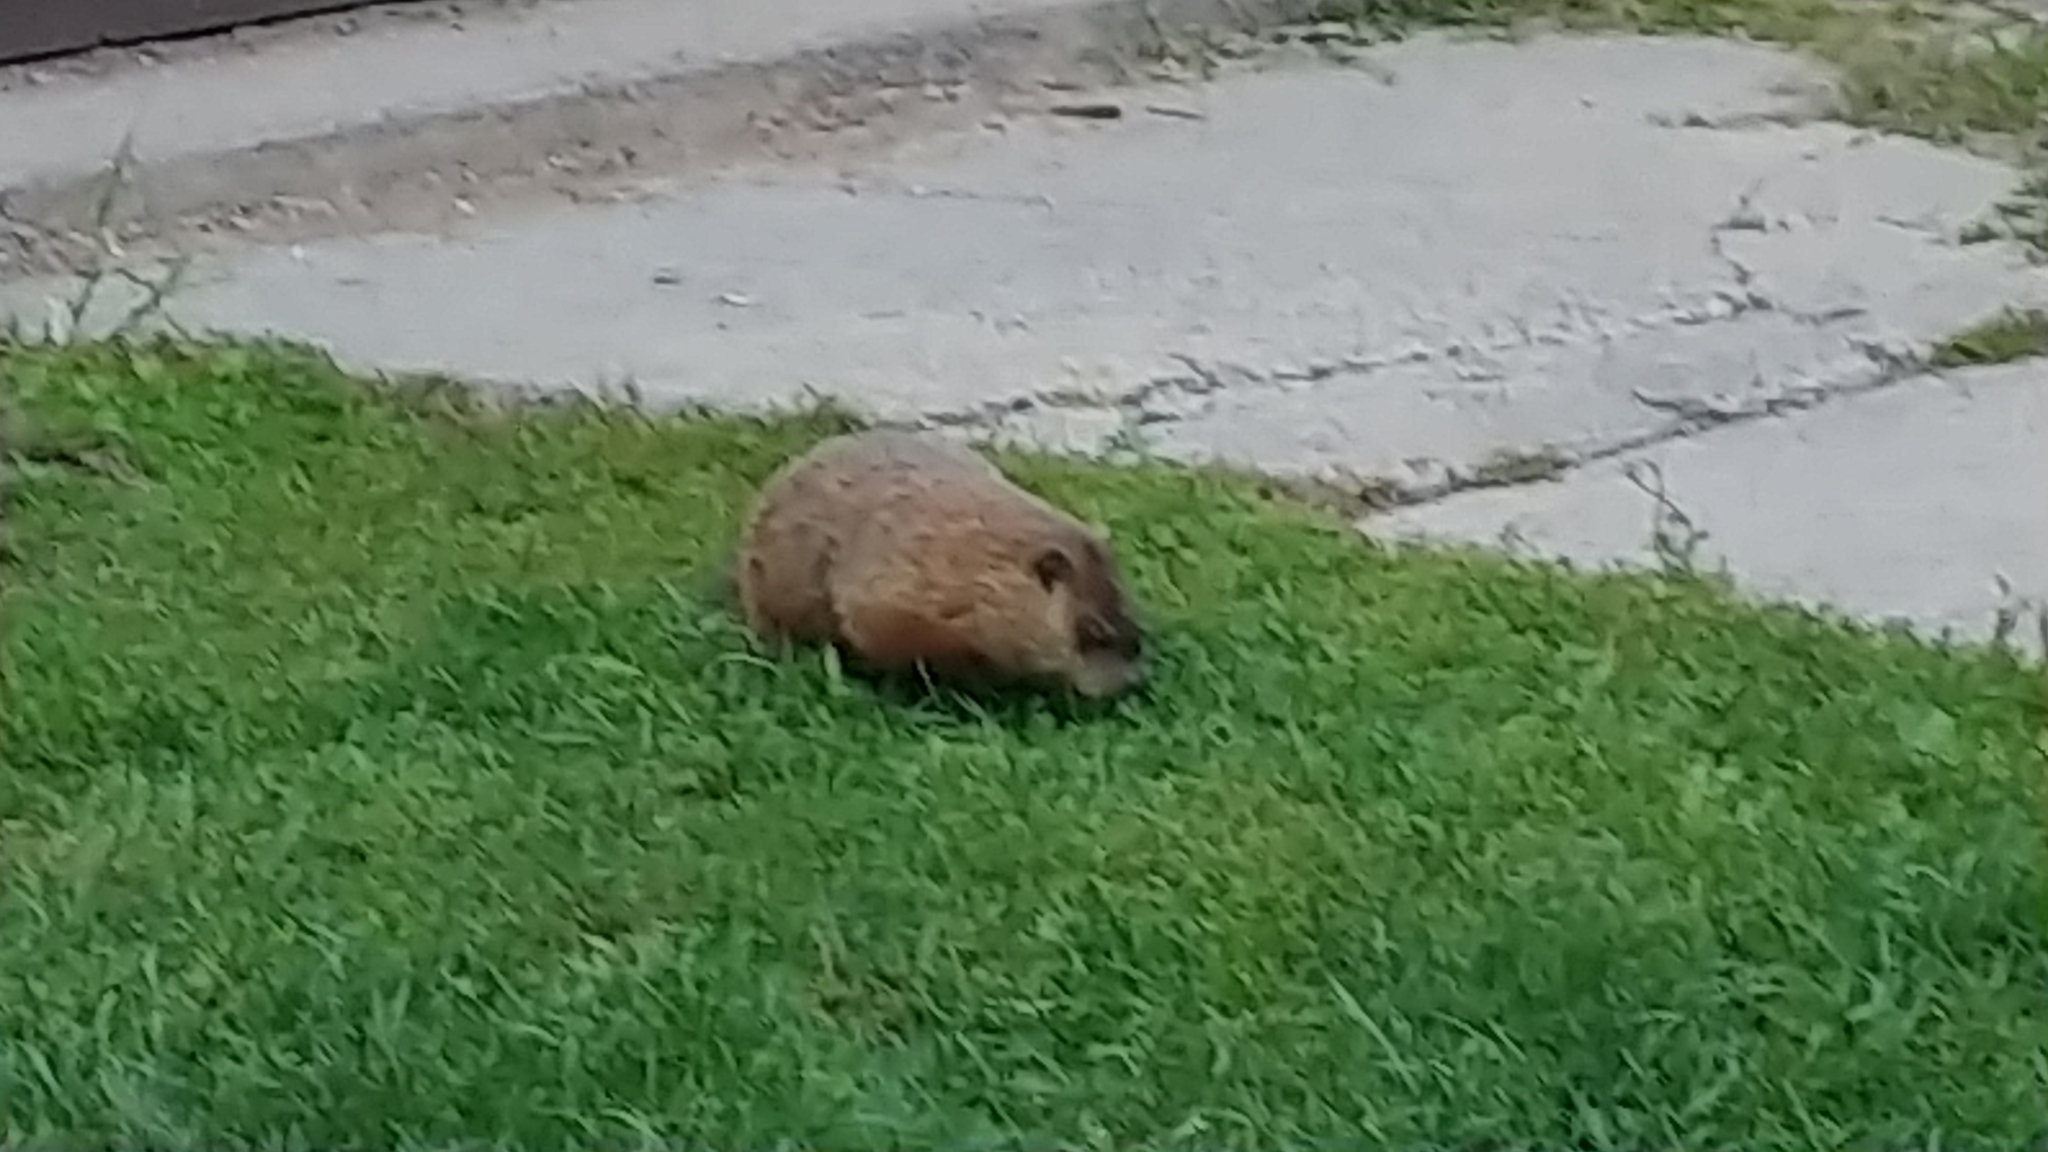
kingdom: Animalia
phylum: Chordata
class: Mammalia
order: Rodentia
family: Sciuridae
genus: Marmota
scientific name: Marmota monax
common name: Groundhog
